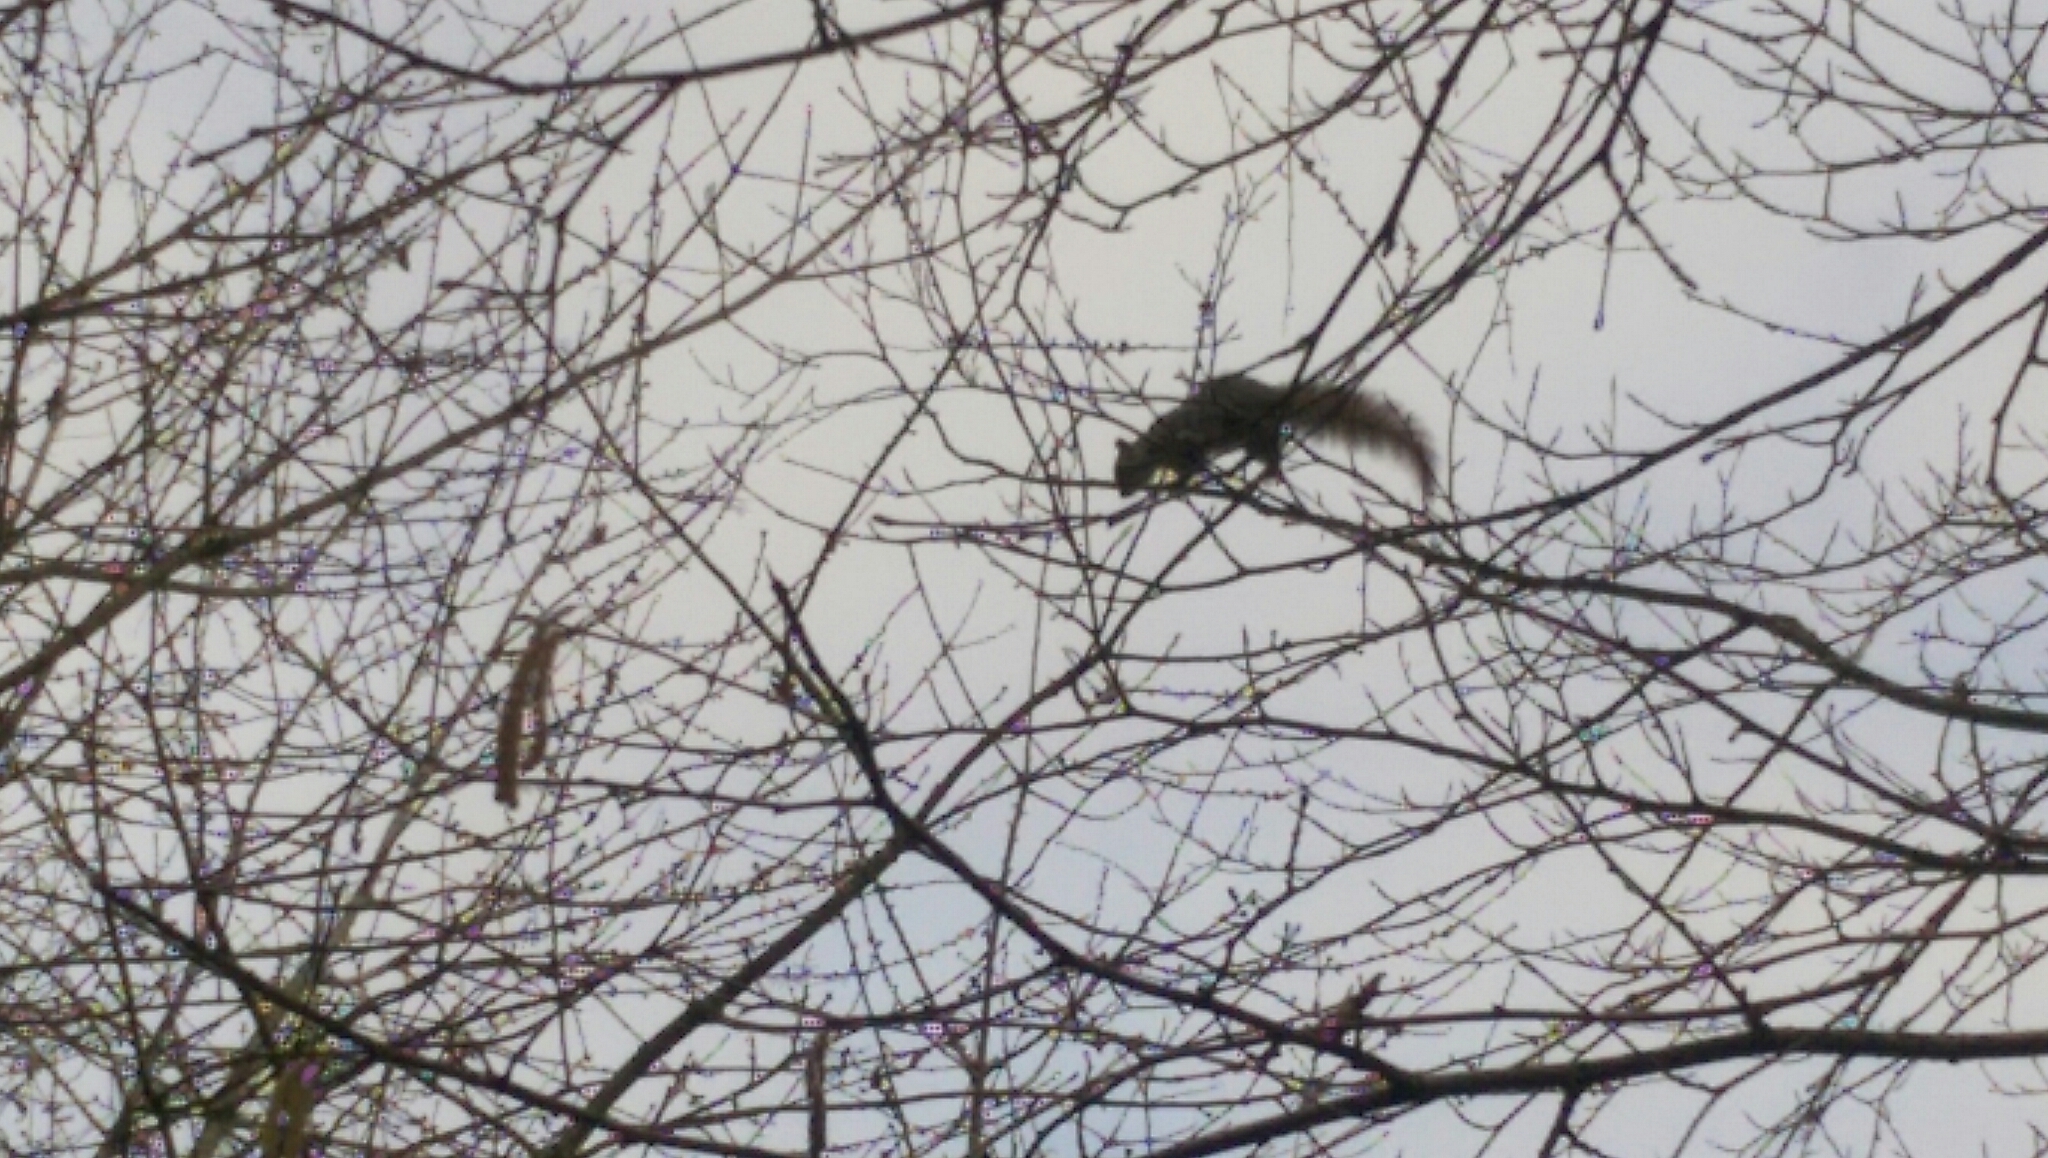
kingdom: Animalia
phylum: Chordata
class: Mammalia
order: Rodentia
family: Sciuridae
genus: Sciurus
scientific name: Sciurus carolinensis
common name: Eastern gray squirrel
